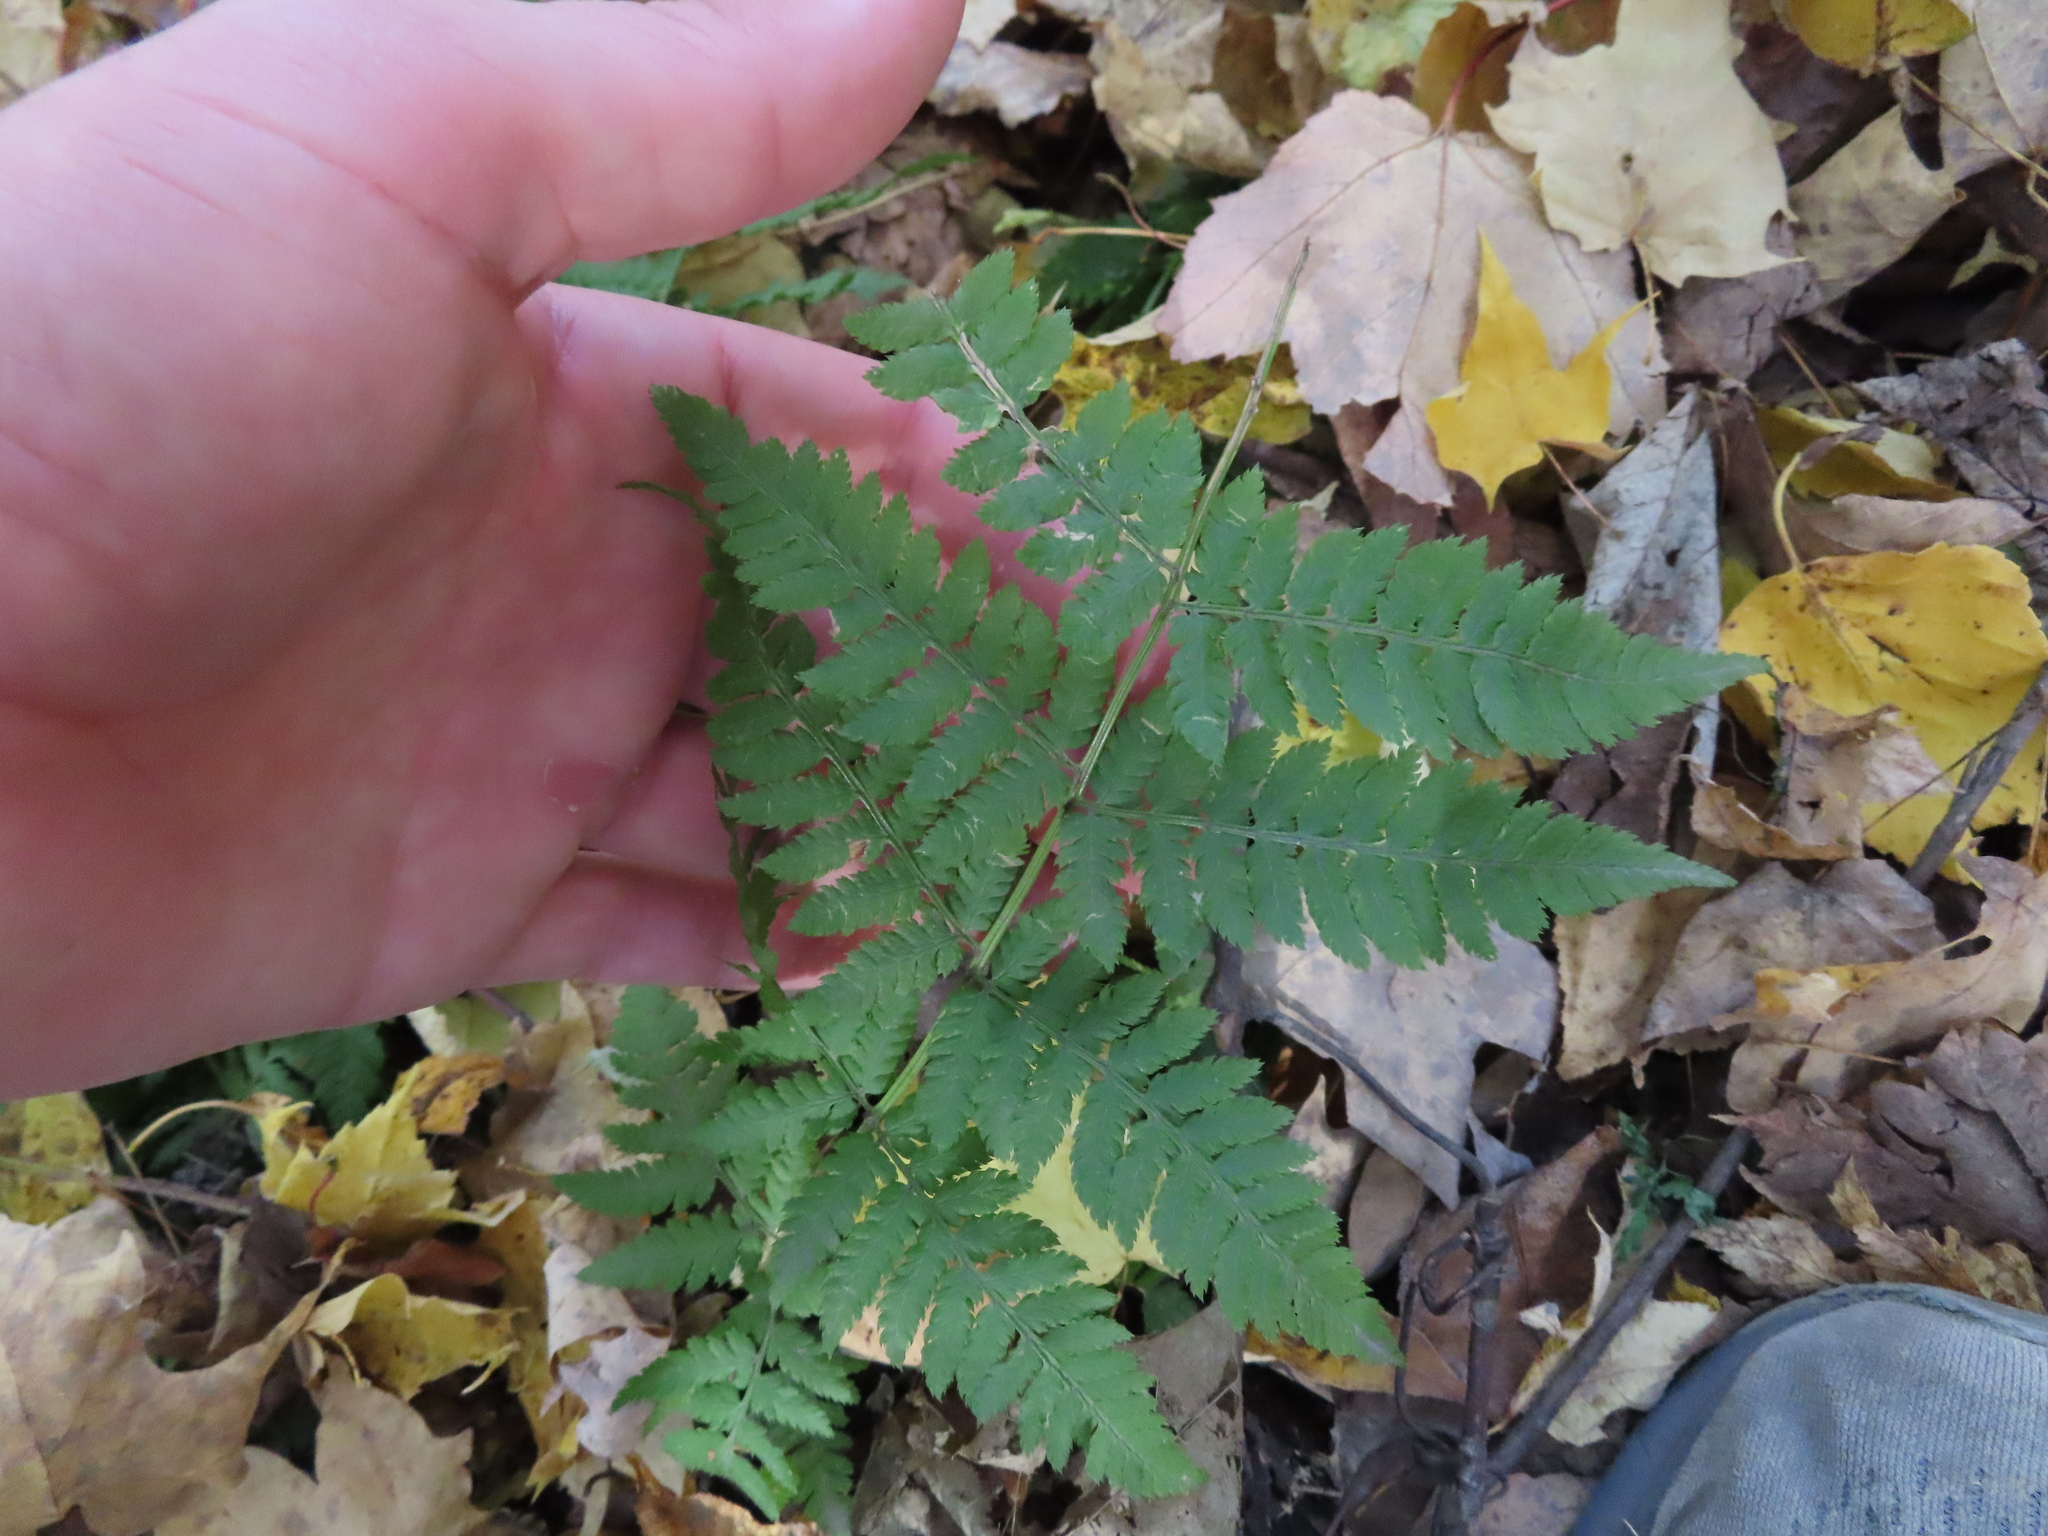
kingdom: Plantae
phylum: Tracheophyta
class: Polypodiopsida
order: Polypodiales
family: Dryopteridaceae
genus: Dryopteris
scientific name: Dryopteris carthusiana
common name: Narrow buckler-fern
